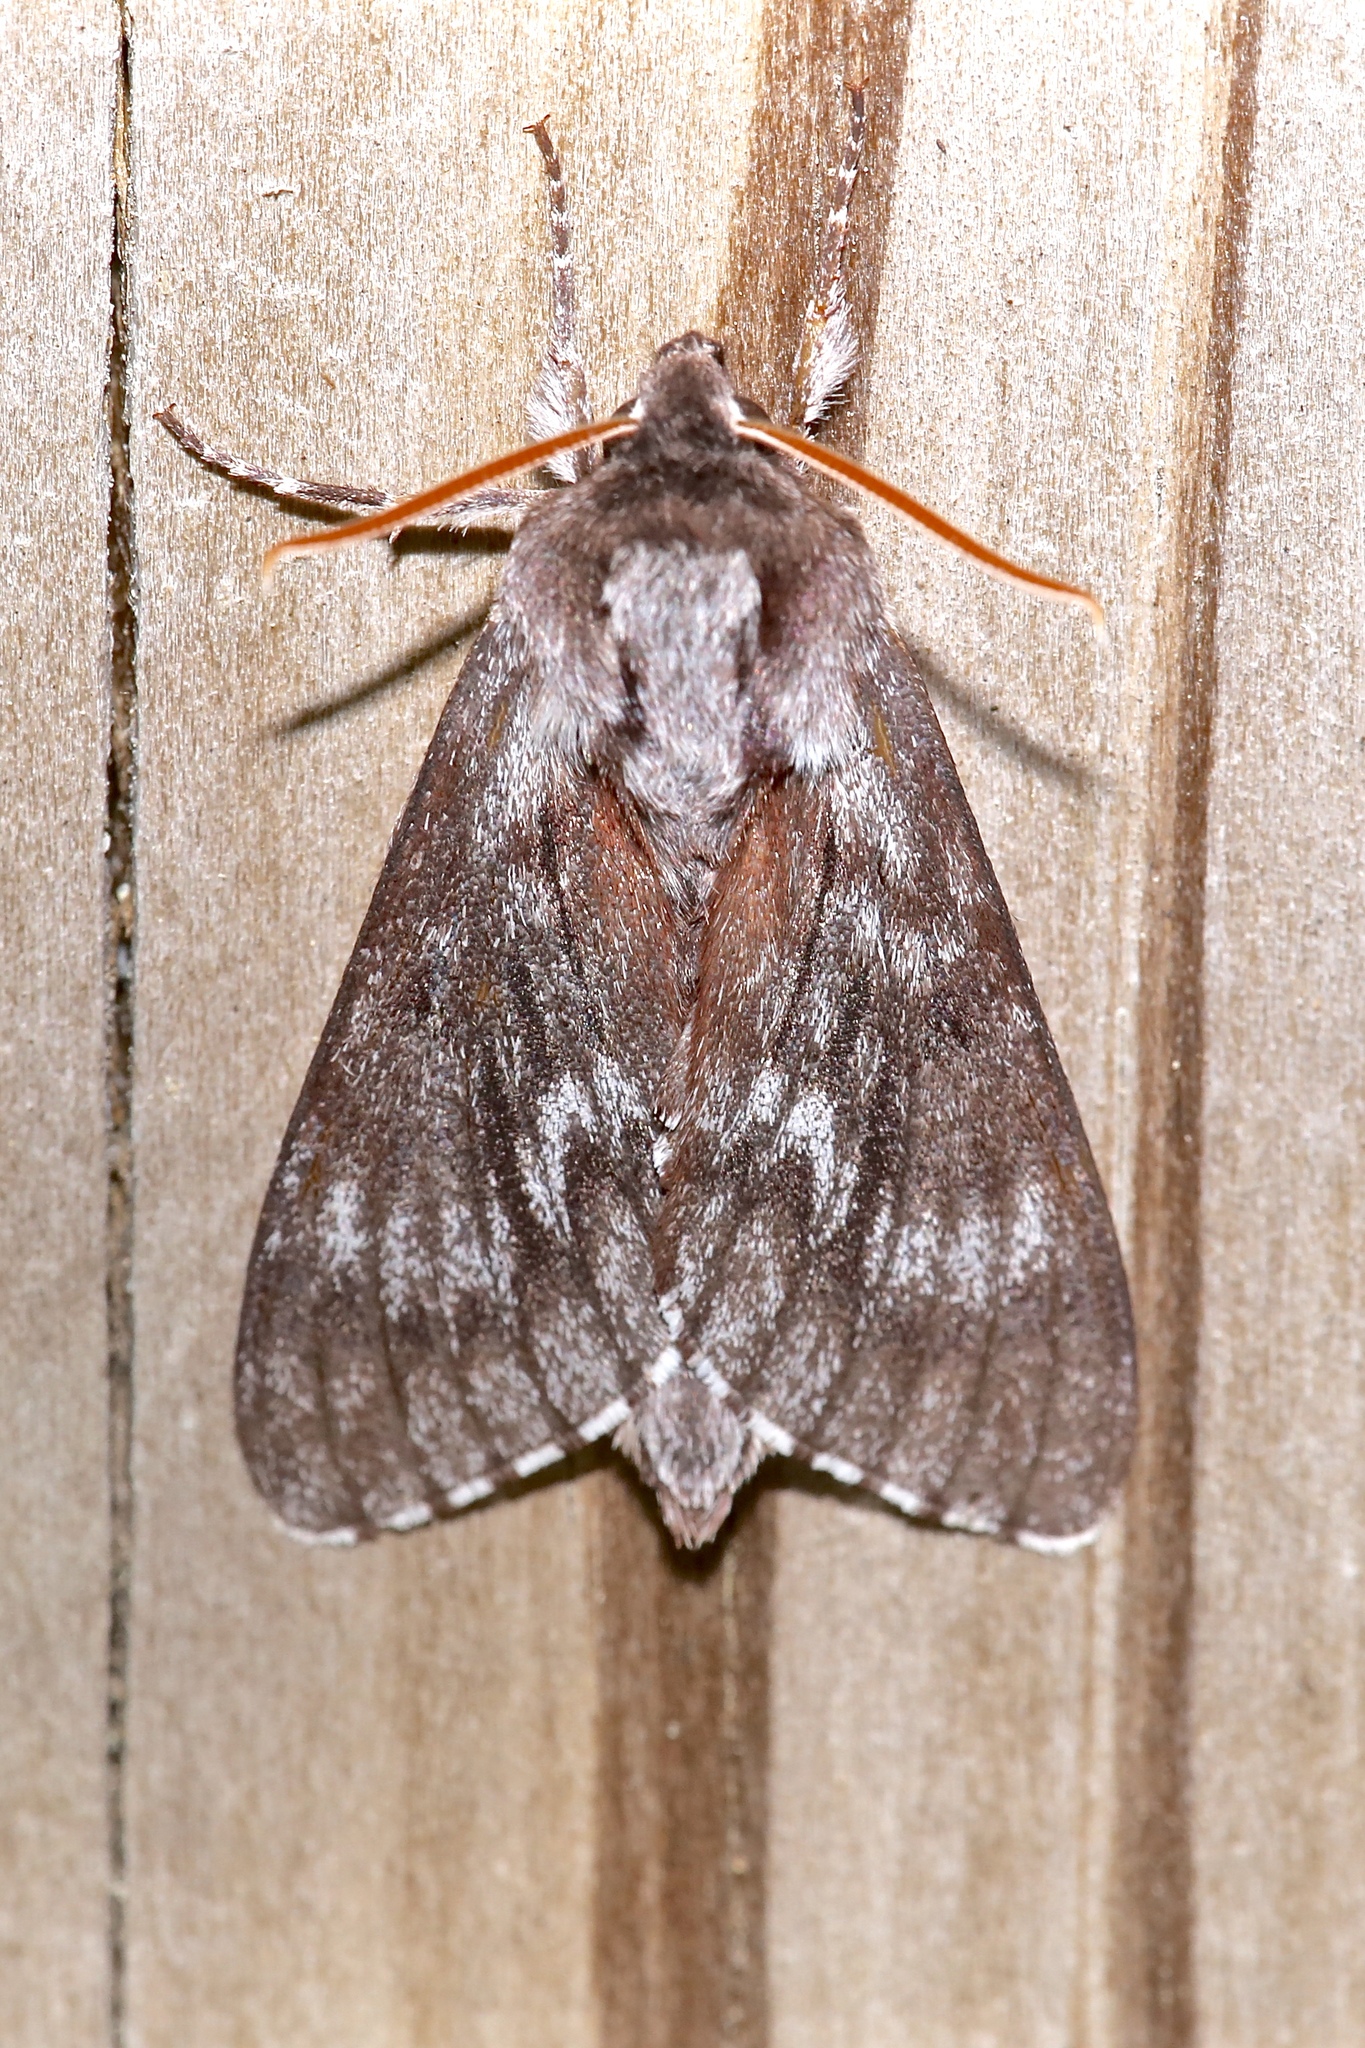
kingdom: Animalia
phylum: Arthropoda
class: Insecta
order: Lepidoptera
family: Sphingidae
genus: Lapara
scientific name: Lapara bombycoides
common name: Northern pine sphinx
